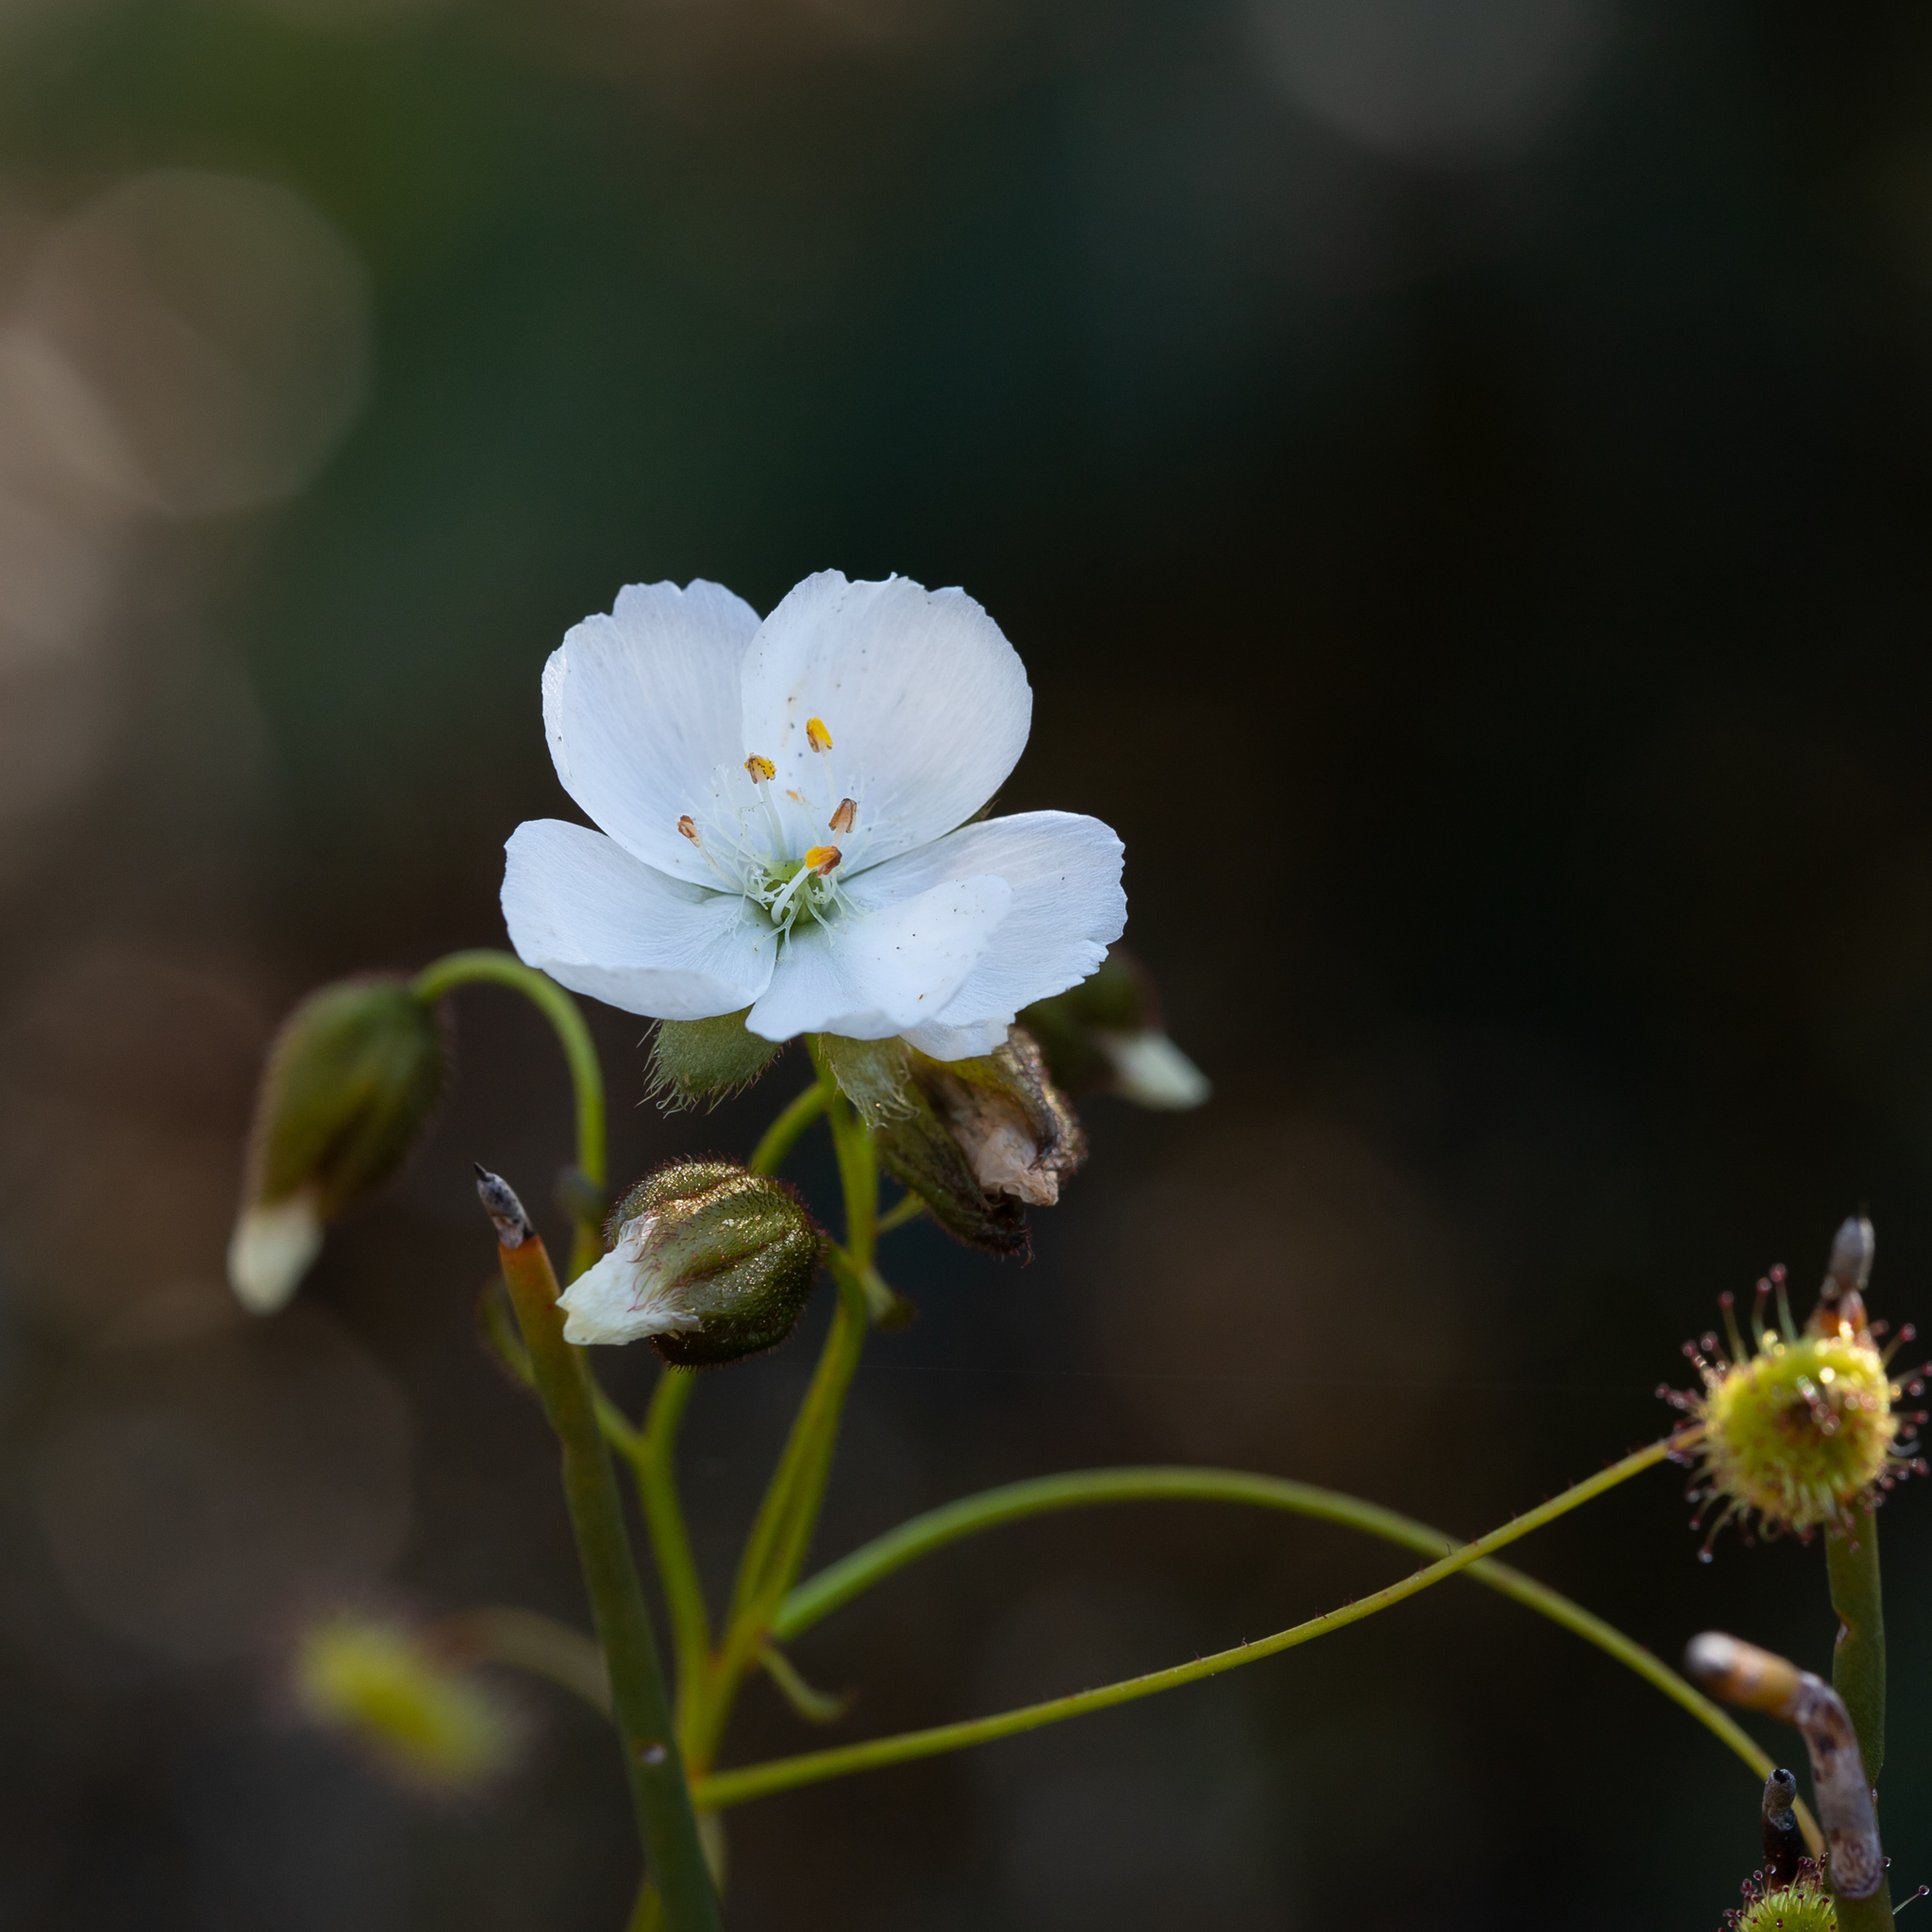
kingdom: Plantae
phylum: Tracheophyta
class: Magnoliopsida
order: Caryophyllales
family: Droseraceae
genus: Drosera
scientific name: Drosera planchonii
